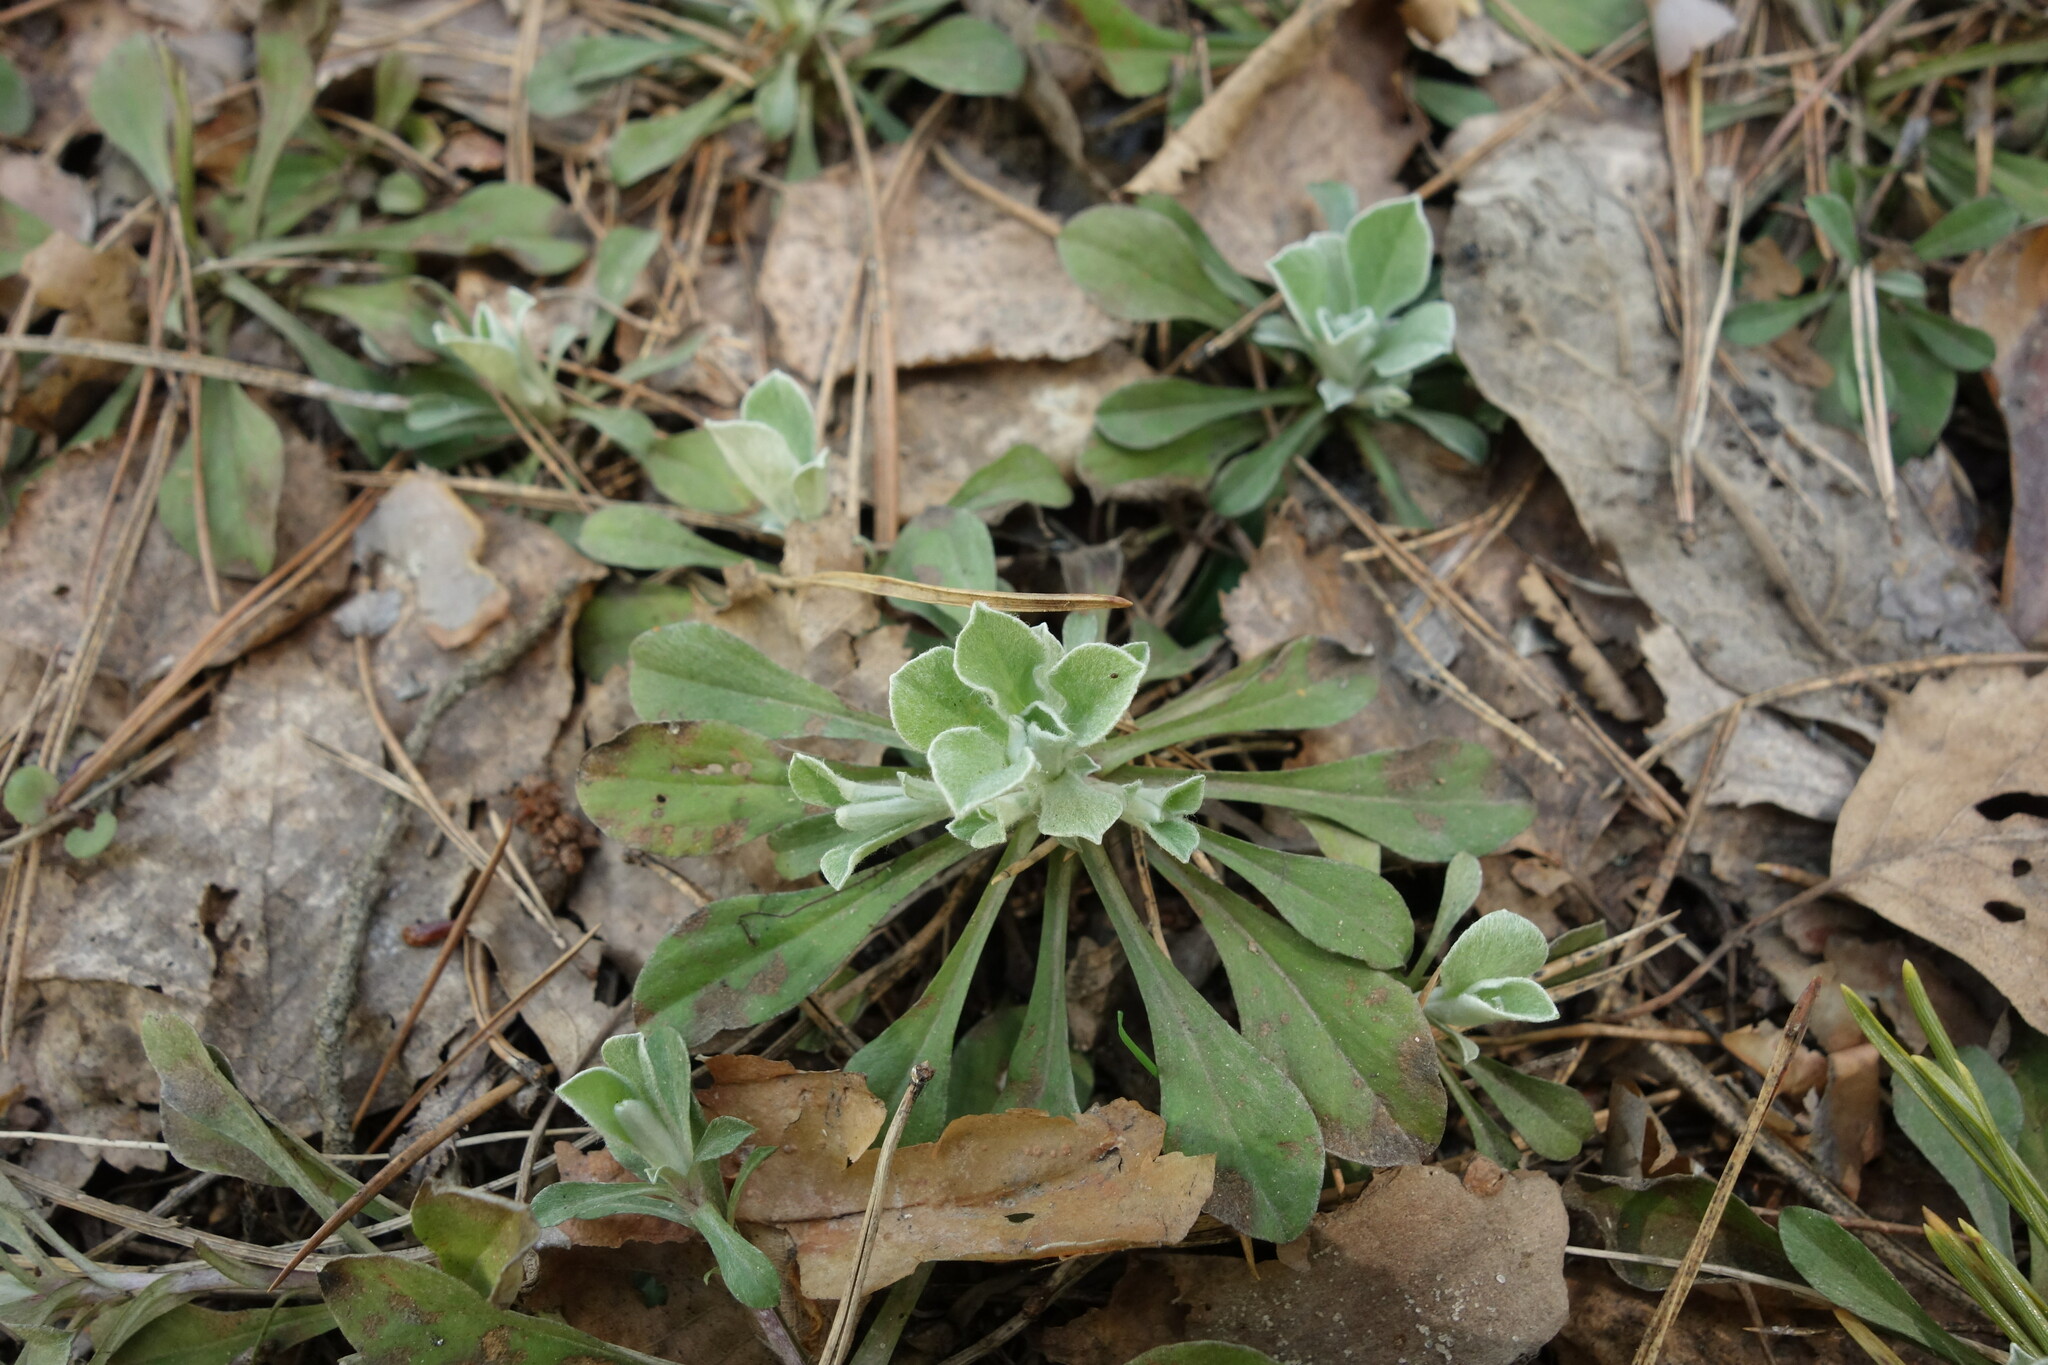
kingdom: Plantae
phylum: Tracheophyta
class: Magnoliopsida
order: Asterales
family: Asteraceae
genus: Antennaria
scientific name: Antennaria dioica
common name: Mountain everlasting
